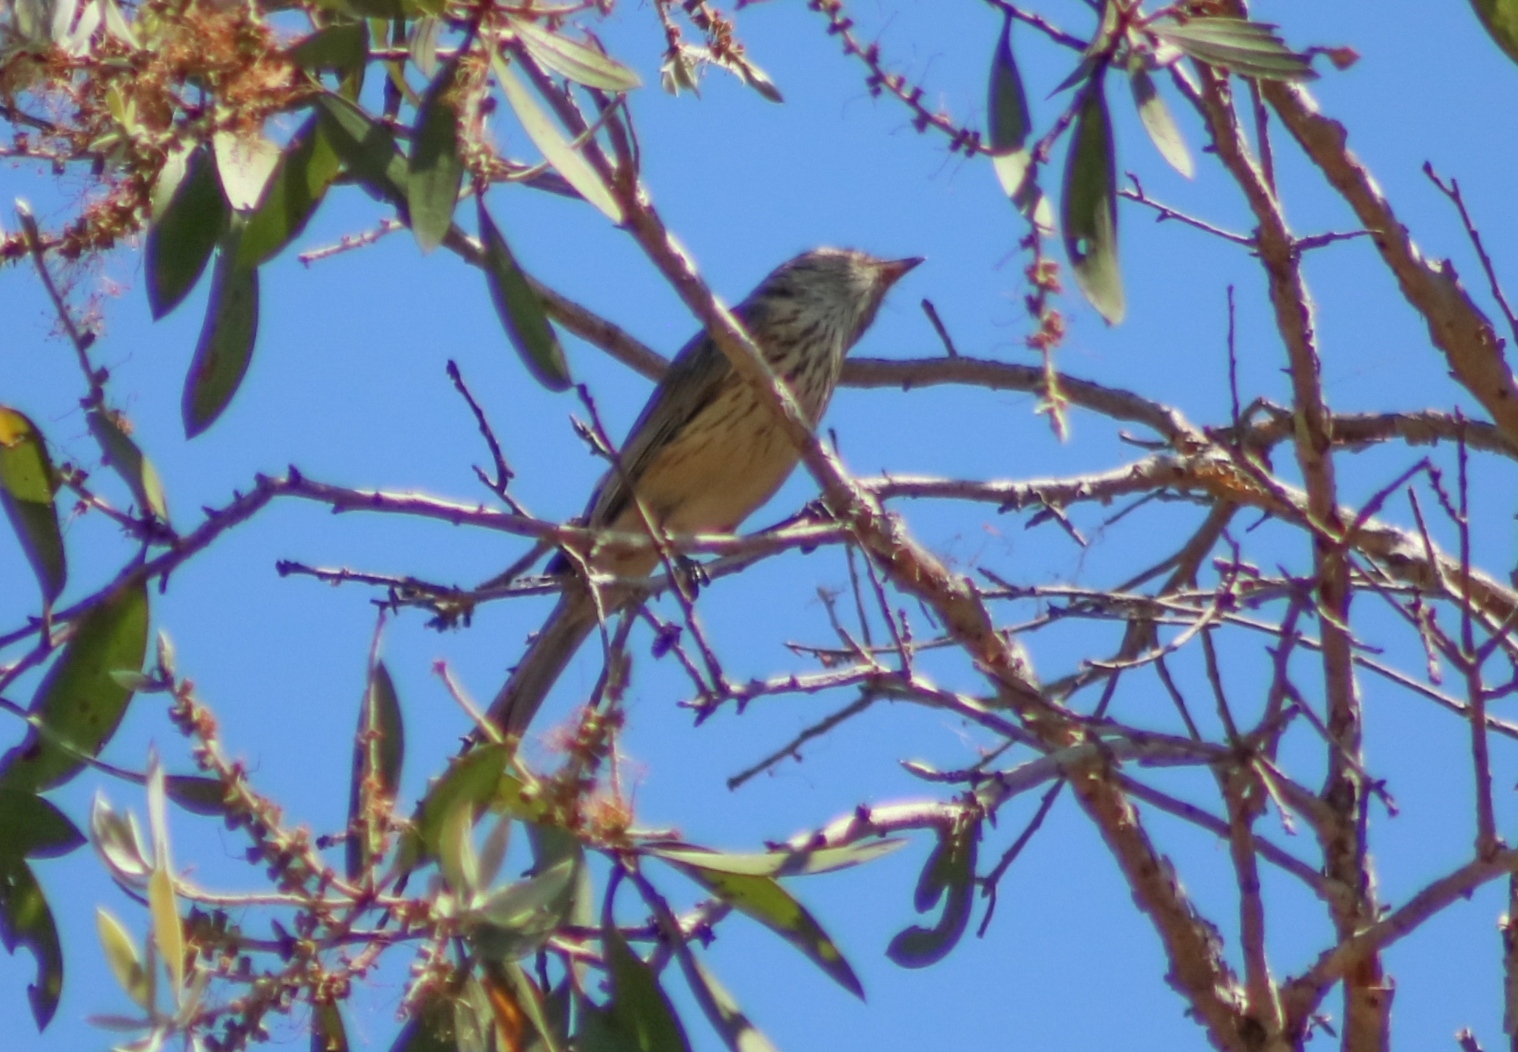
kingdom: Animalia
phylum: Chordata
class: Aves
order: Passeriformes
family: Pachycephalidae
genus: Pachycephala
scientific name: Pachycephala rufiventris
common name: Rufous whistler
